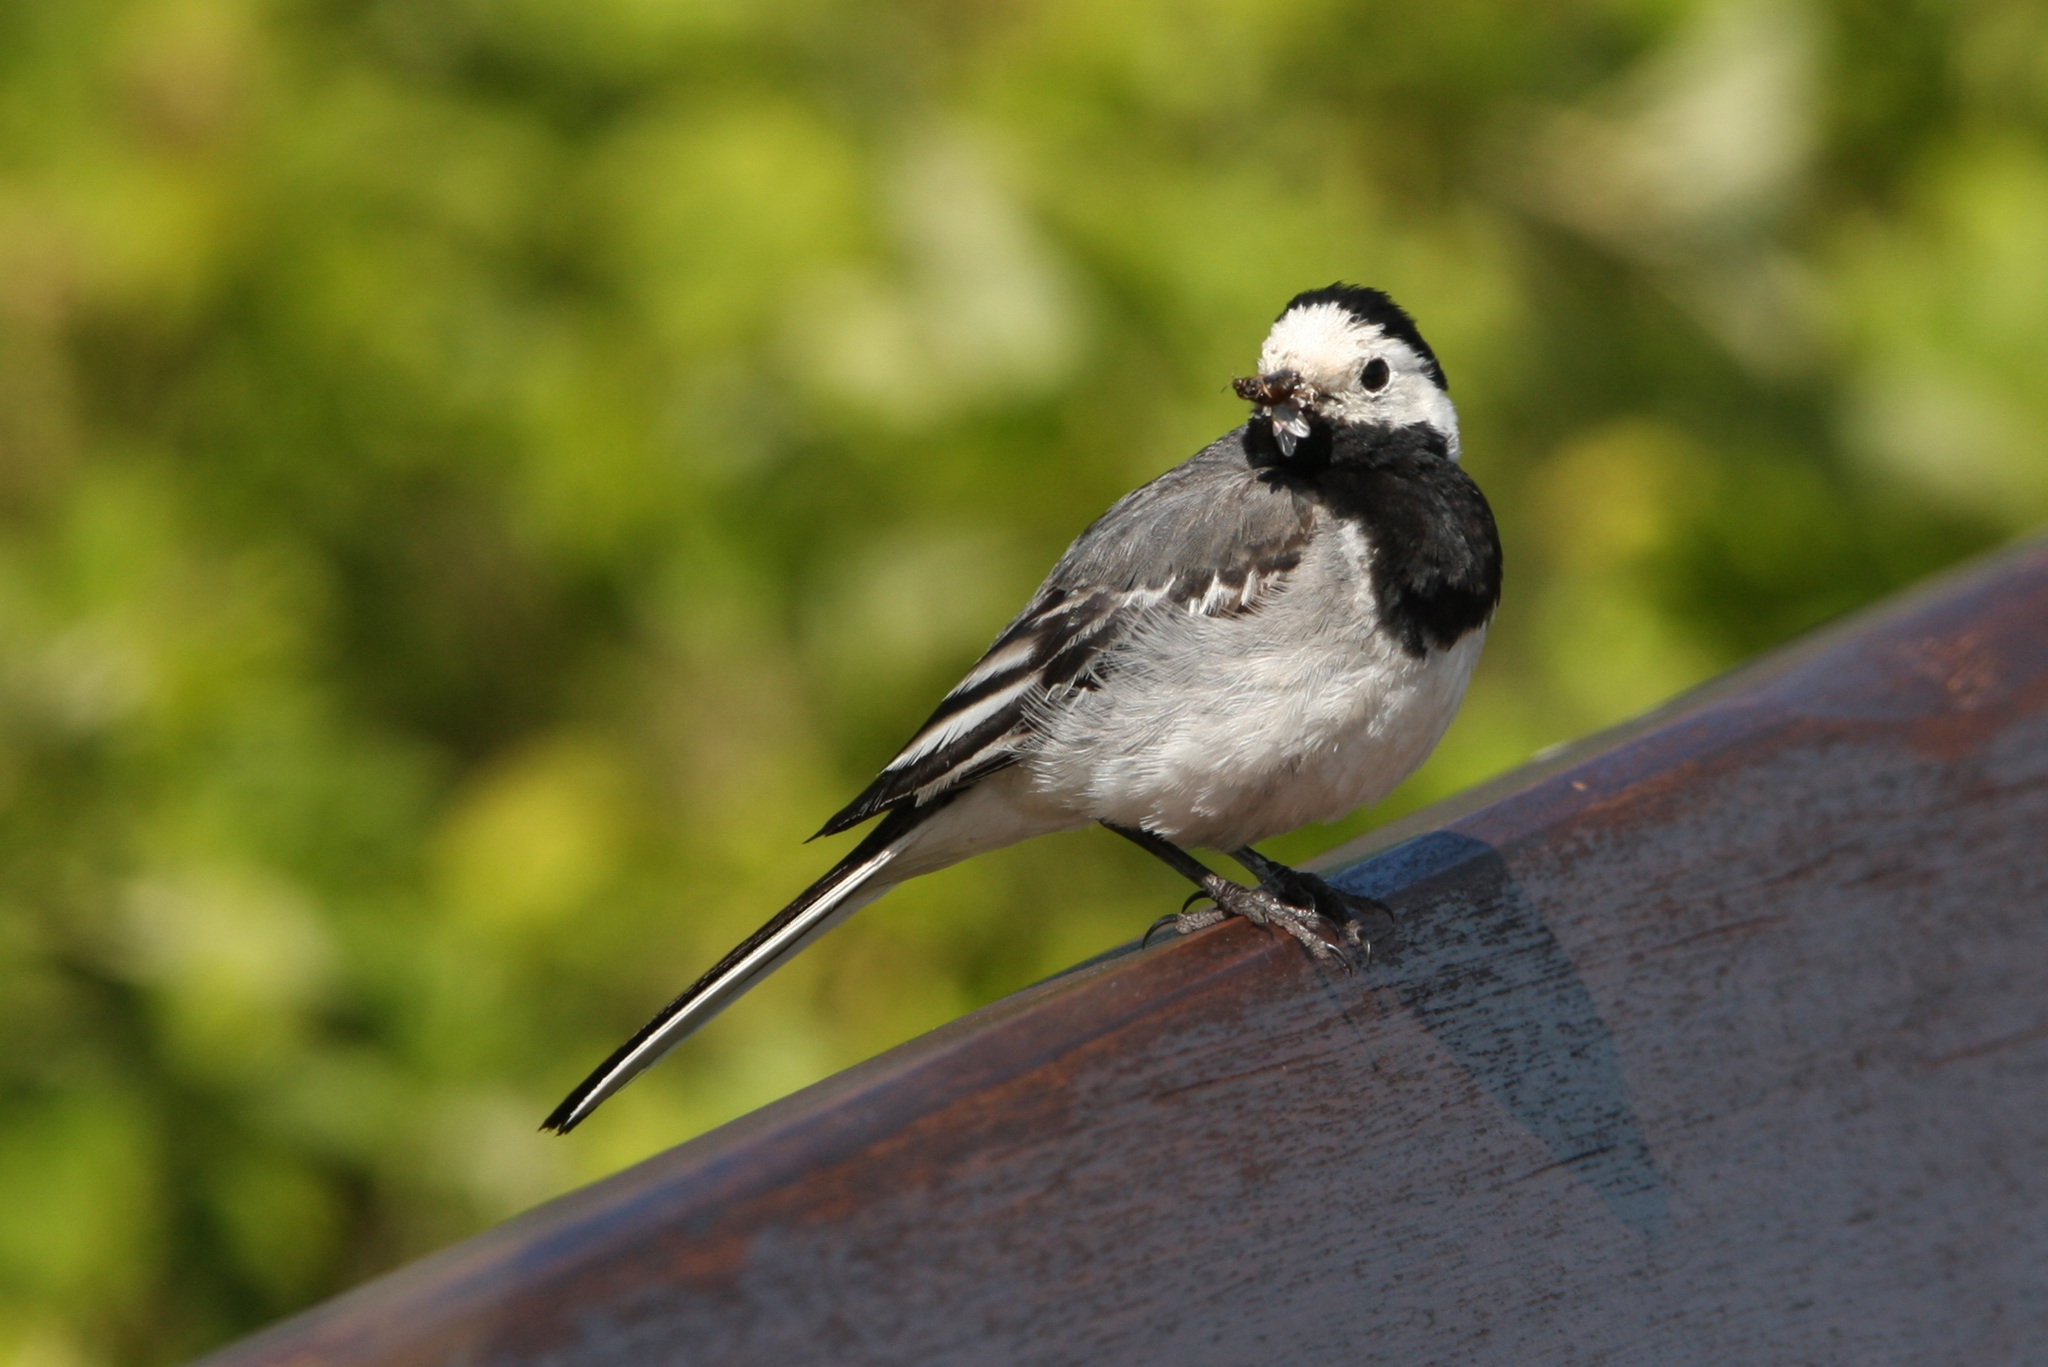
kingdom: Animalia
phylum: Chordata
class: Aves
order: Passeriformes
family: Motacillidae
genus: Motacilla
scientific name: Motacilla alba
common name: White wagtail
